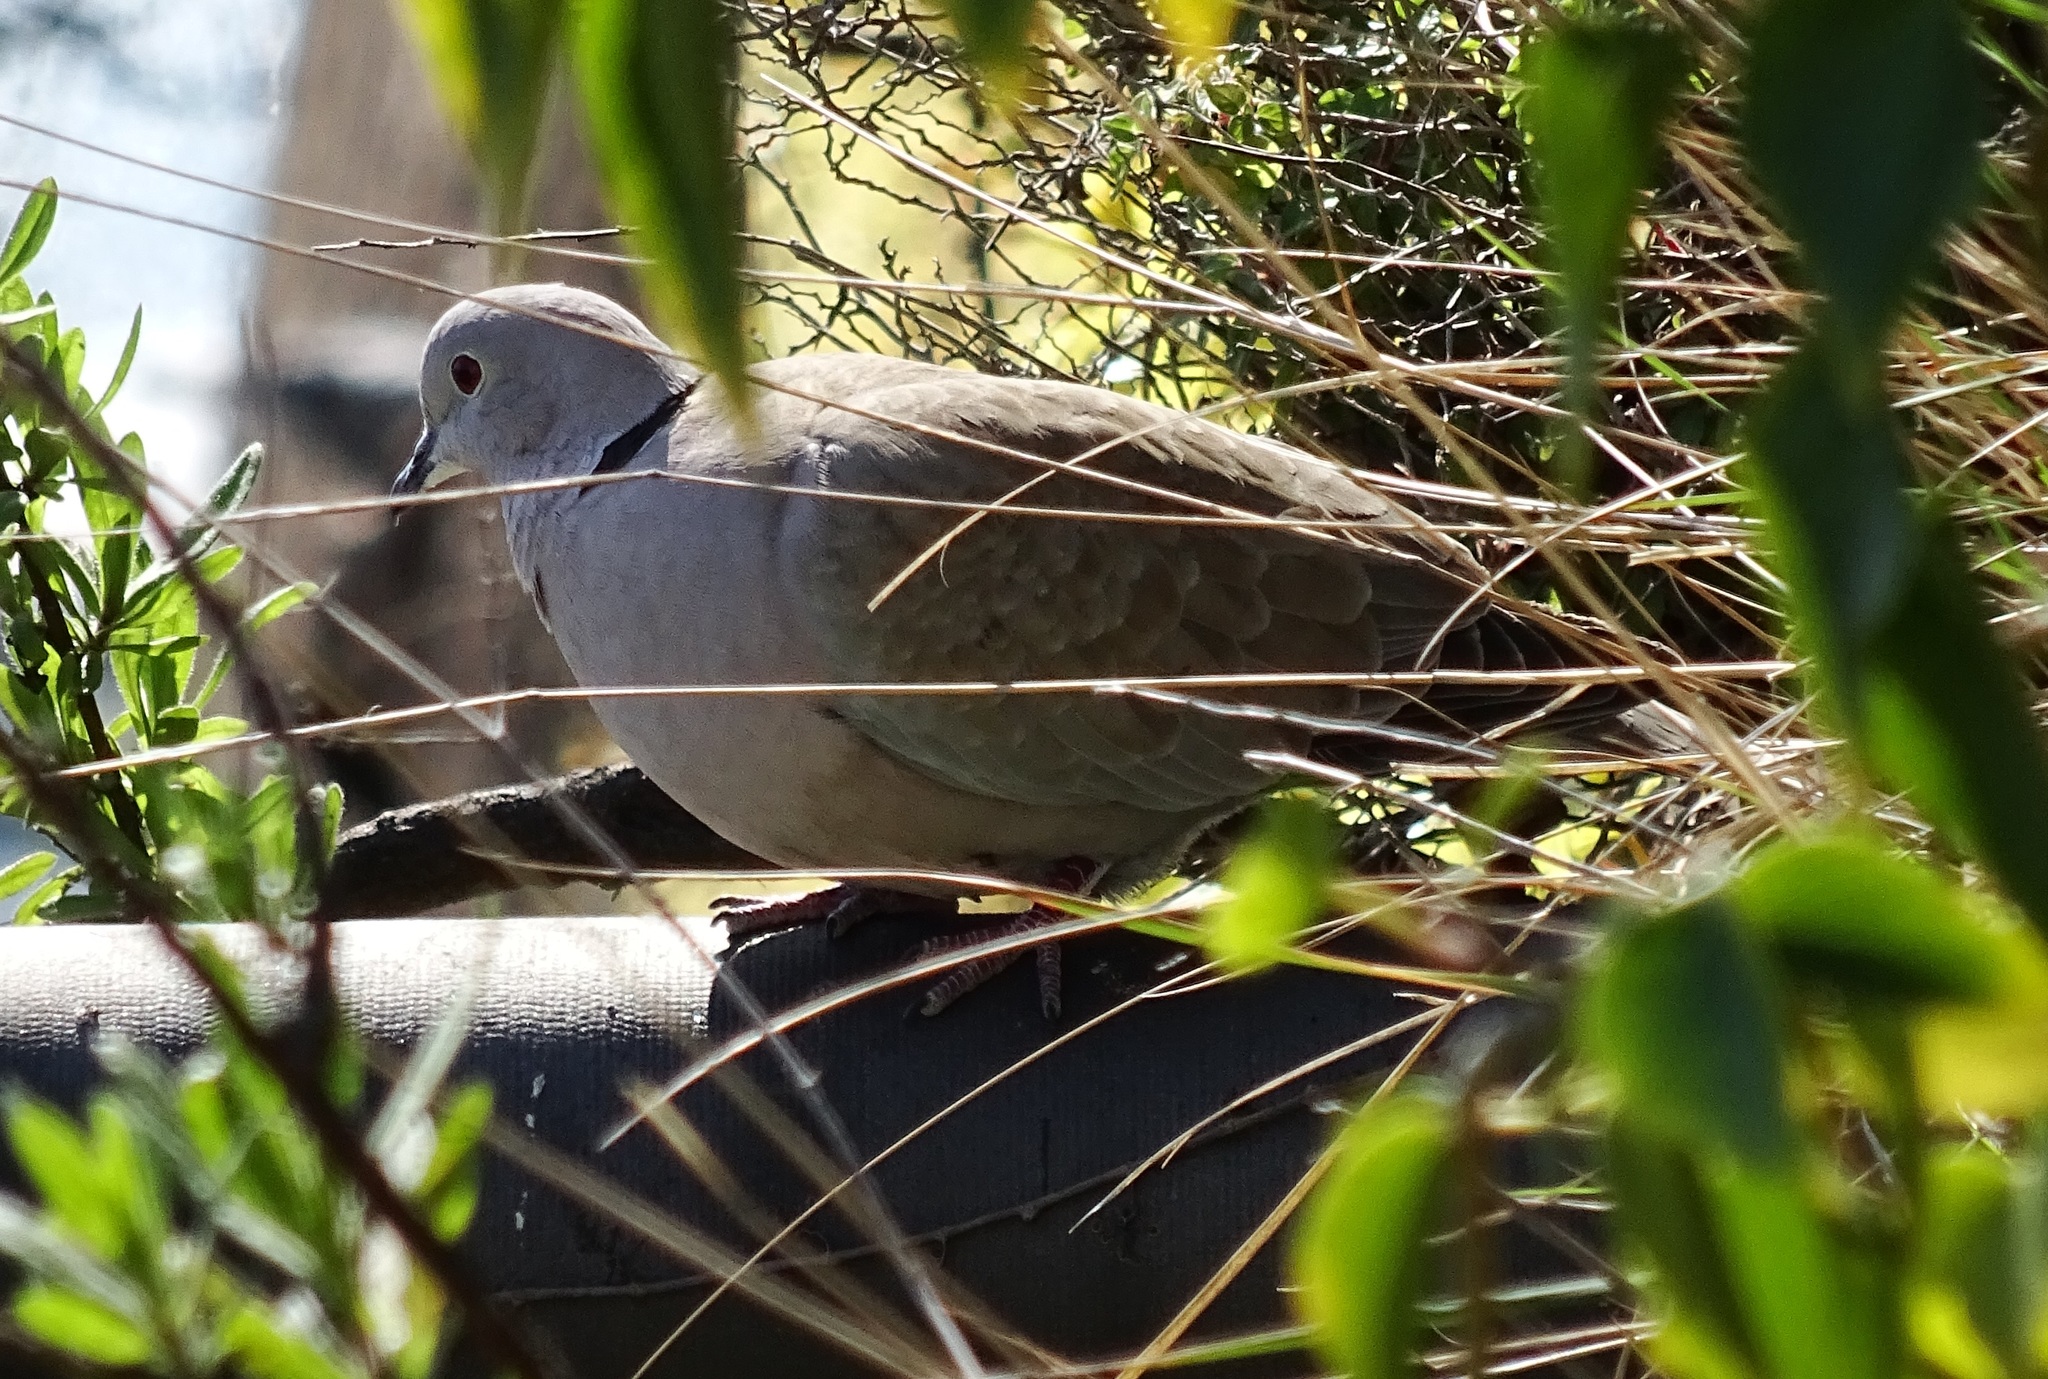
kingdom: Animalia
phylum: Chordata
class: Aves
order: Columbiformes
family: Columbidae
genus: Streptopelia
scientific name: Streptopelia decaocto
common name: Eurasian collared dove
